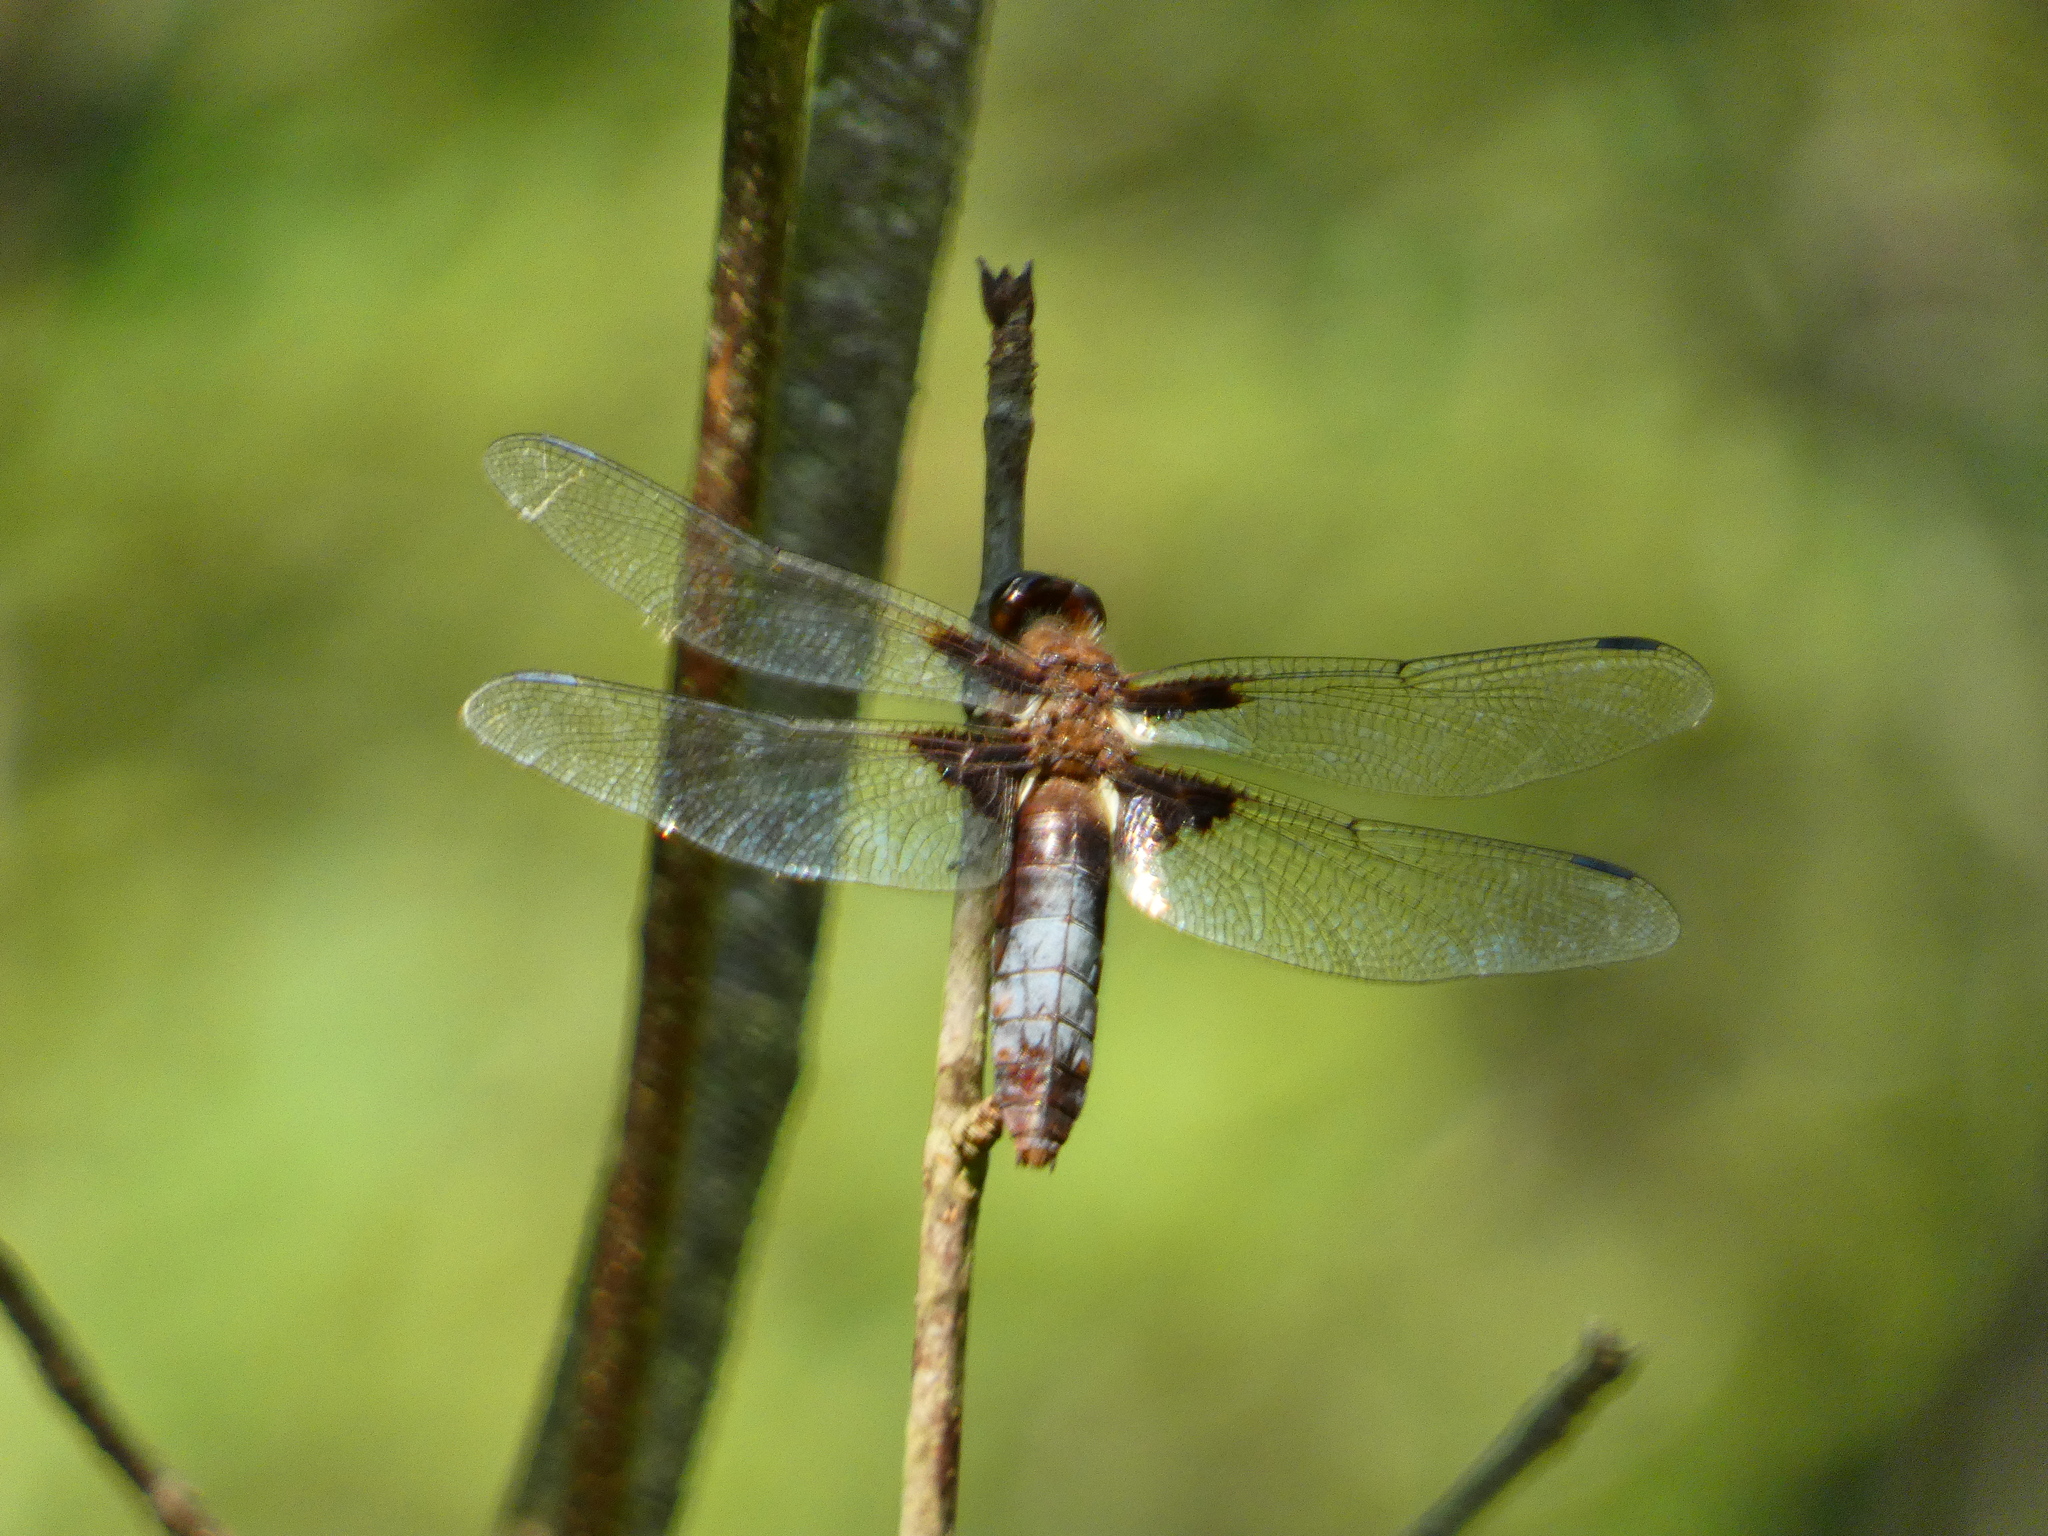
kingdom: Animalia
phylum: Arthropoda
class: Insecta
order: Odonata
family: Libellulidae
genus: Libellula
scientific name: Libellula depressa
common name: Broad-bodied chaser
